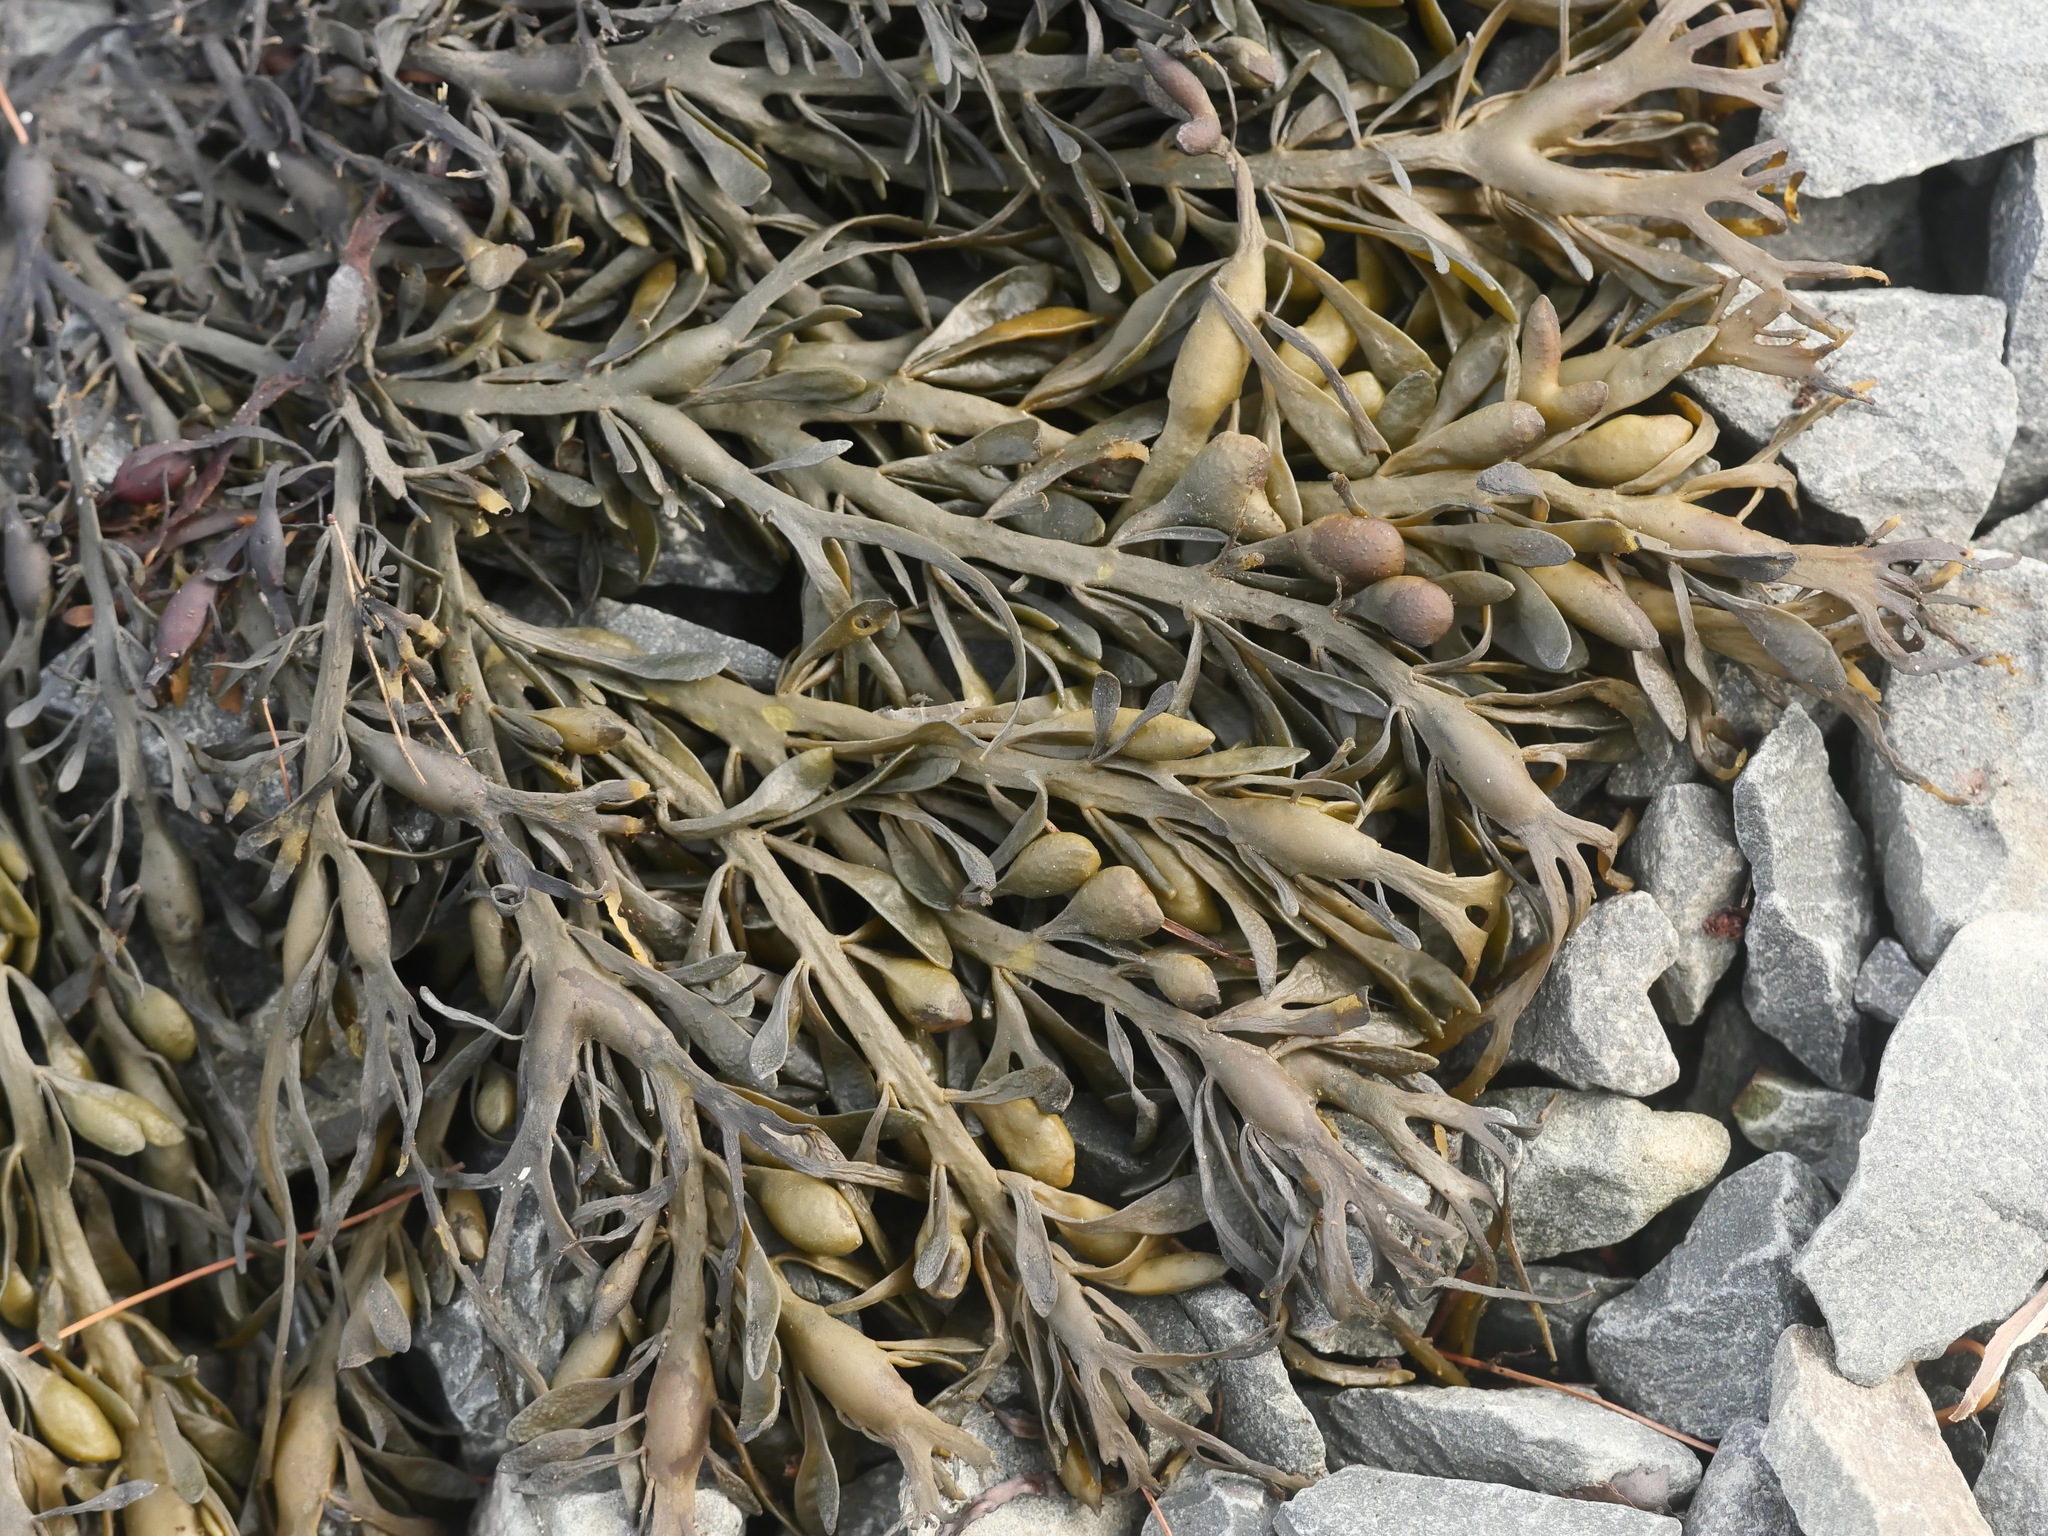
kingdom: Chromista
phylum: Ochrophyta
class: Phaeophyceae
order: Fucales
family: Fucaceae
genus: Ascophyllum
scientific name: Ascophyllum nodosum
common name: Knotted wrack
